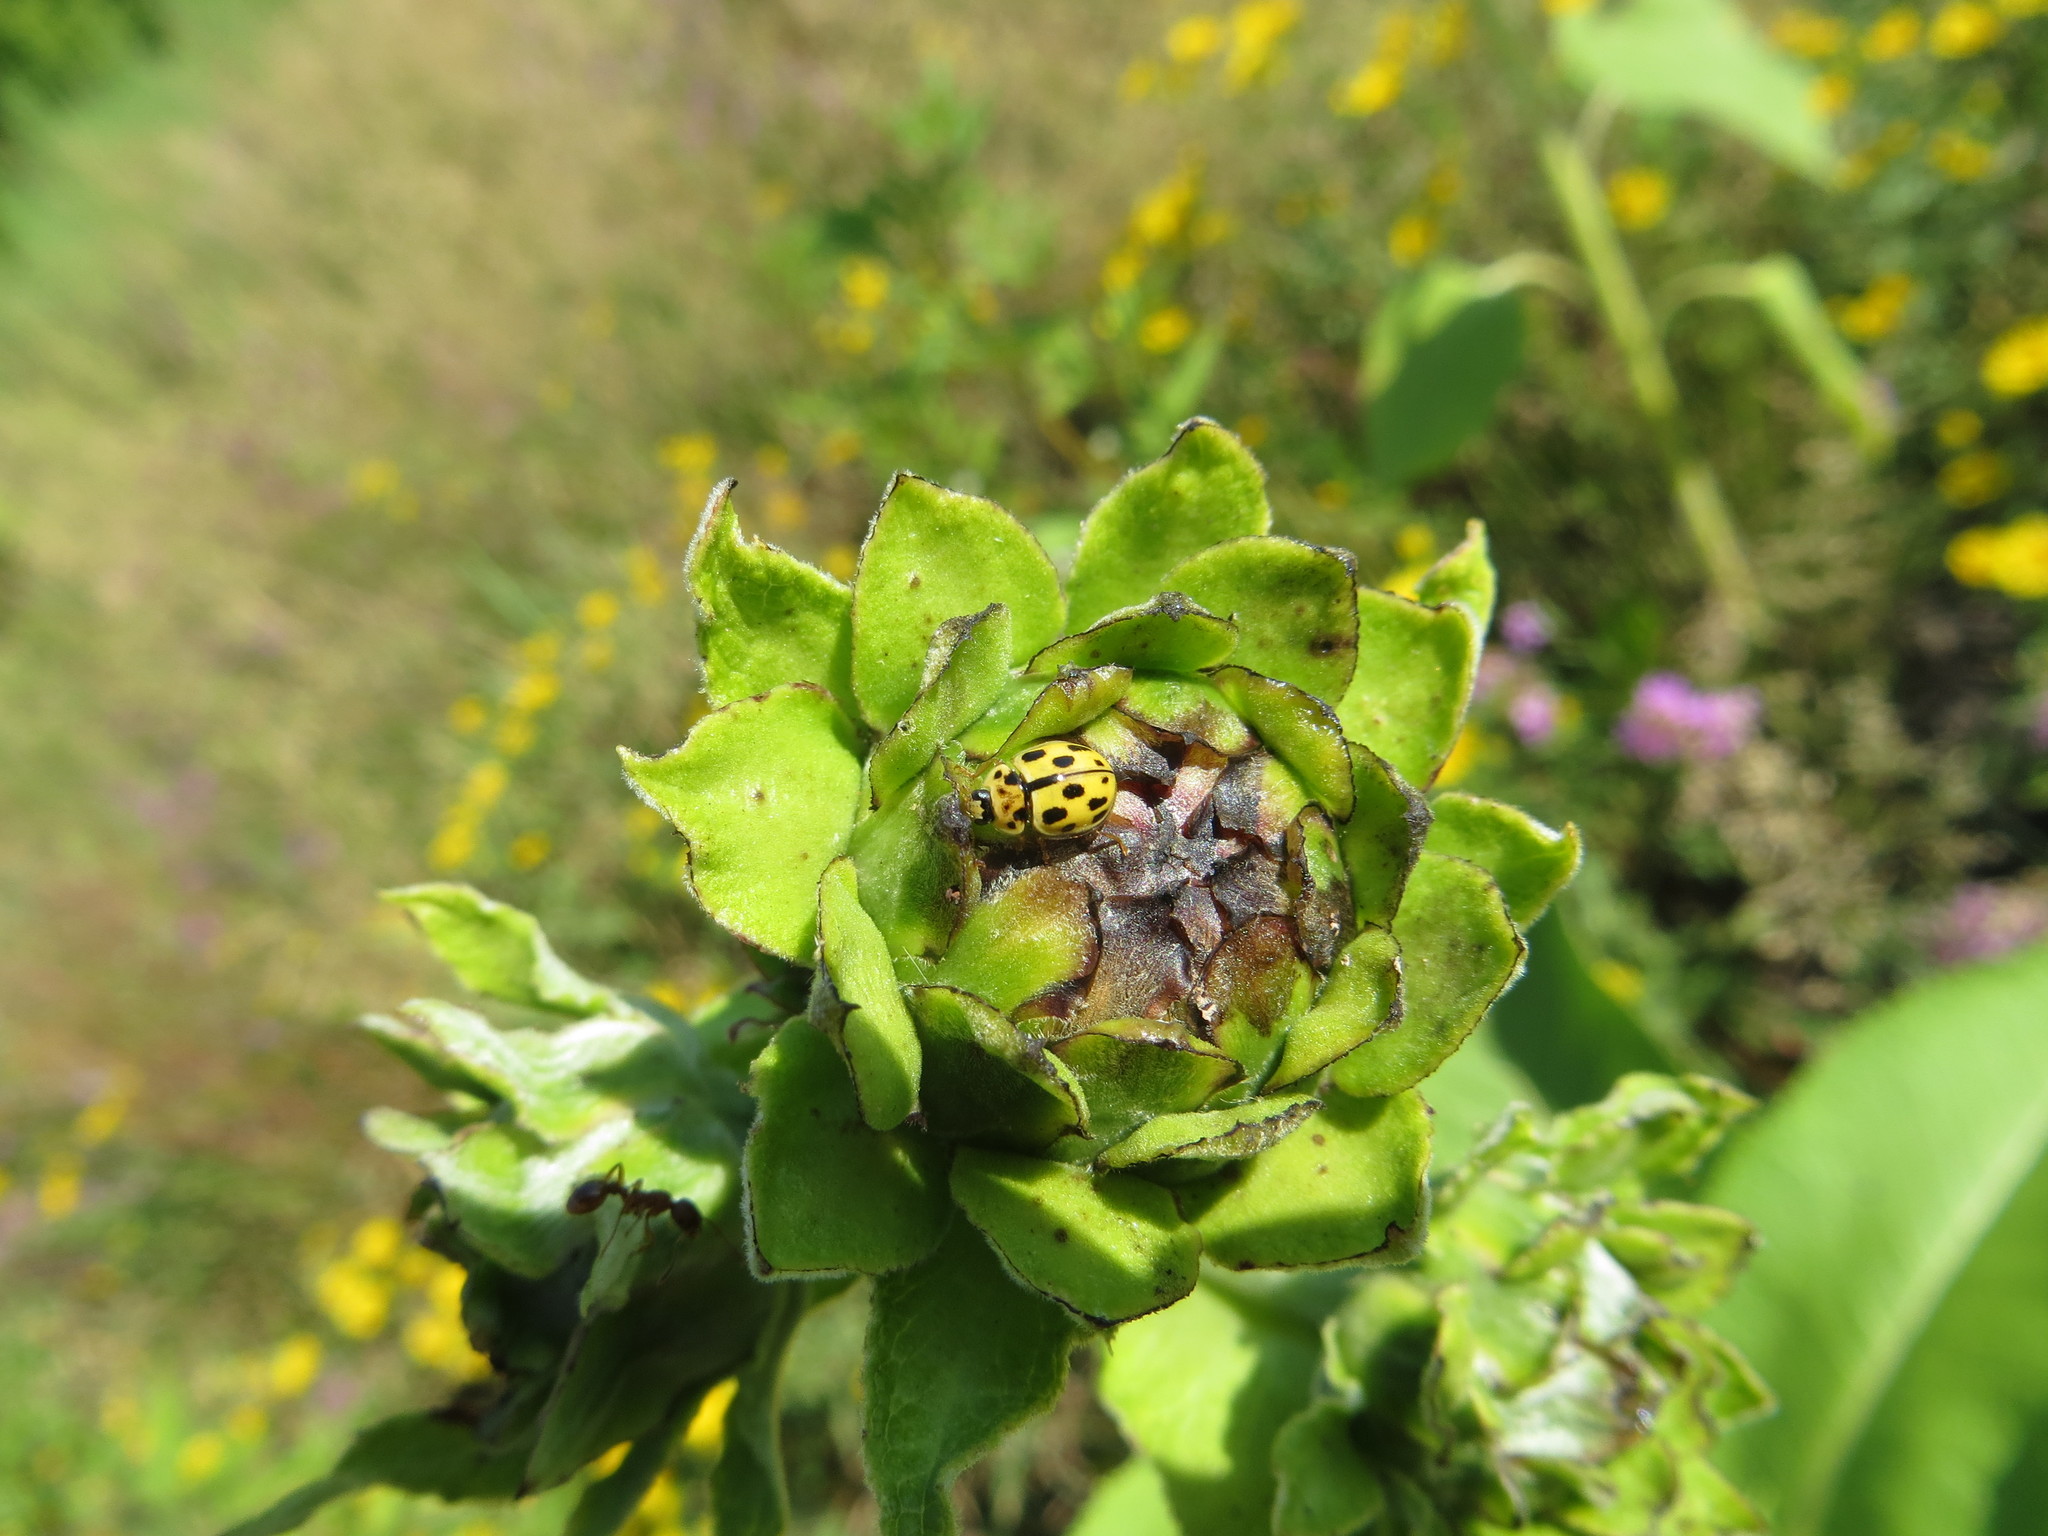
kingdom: Animalia
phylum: Arthropoda
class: Insecta
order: Coleoptera
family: Coccinellidae
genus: Propylaea
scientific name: Propylaea quatuordecimpunctata
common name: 14-spotted ladybird beetle
